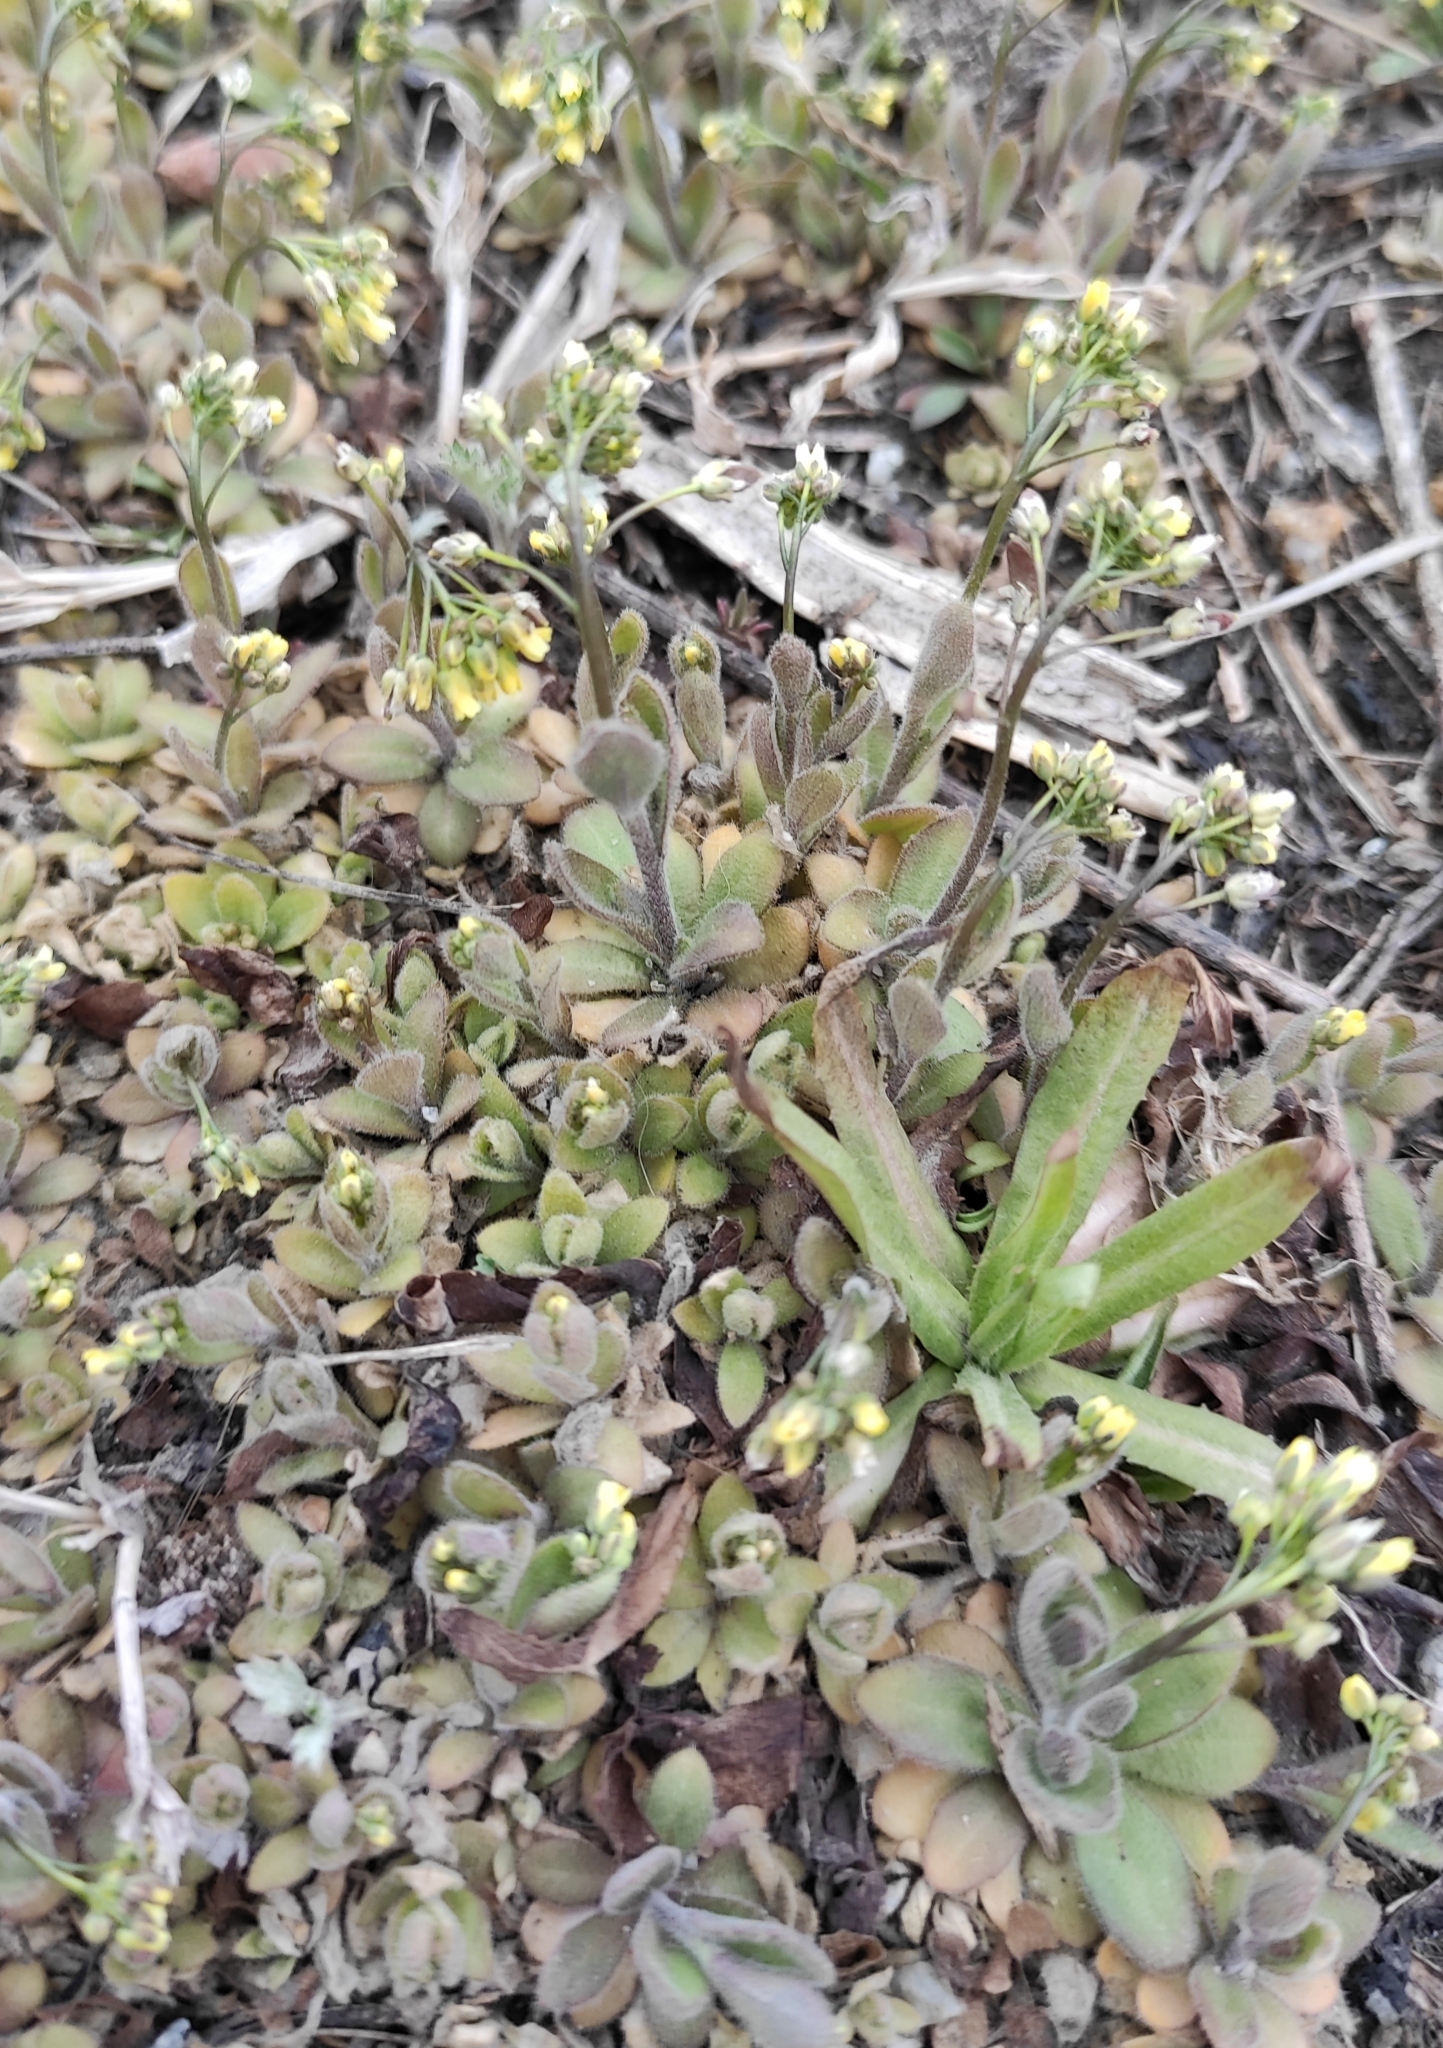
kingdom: Plantae
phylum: Tracheophyta
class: Magnoliopsida
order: Brassicales
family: Brassicaceae
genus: Draba
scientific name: Draba nemorosa
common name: Wood whitlow-grass
